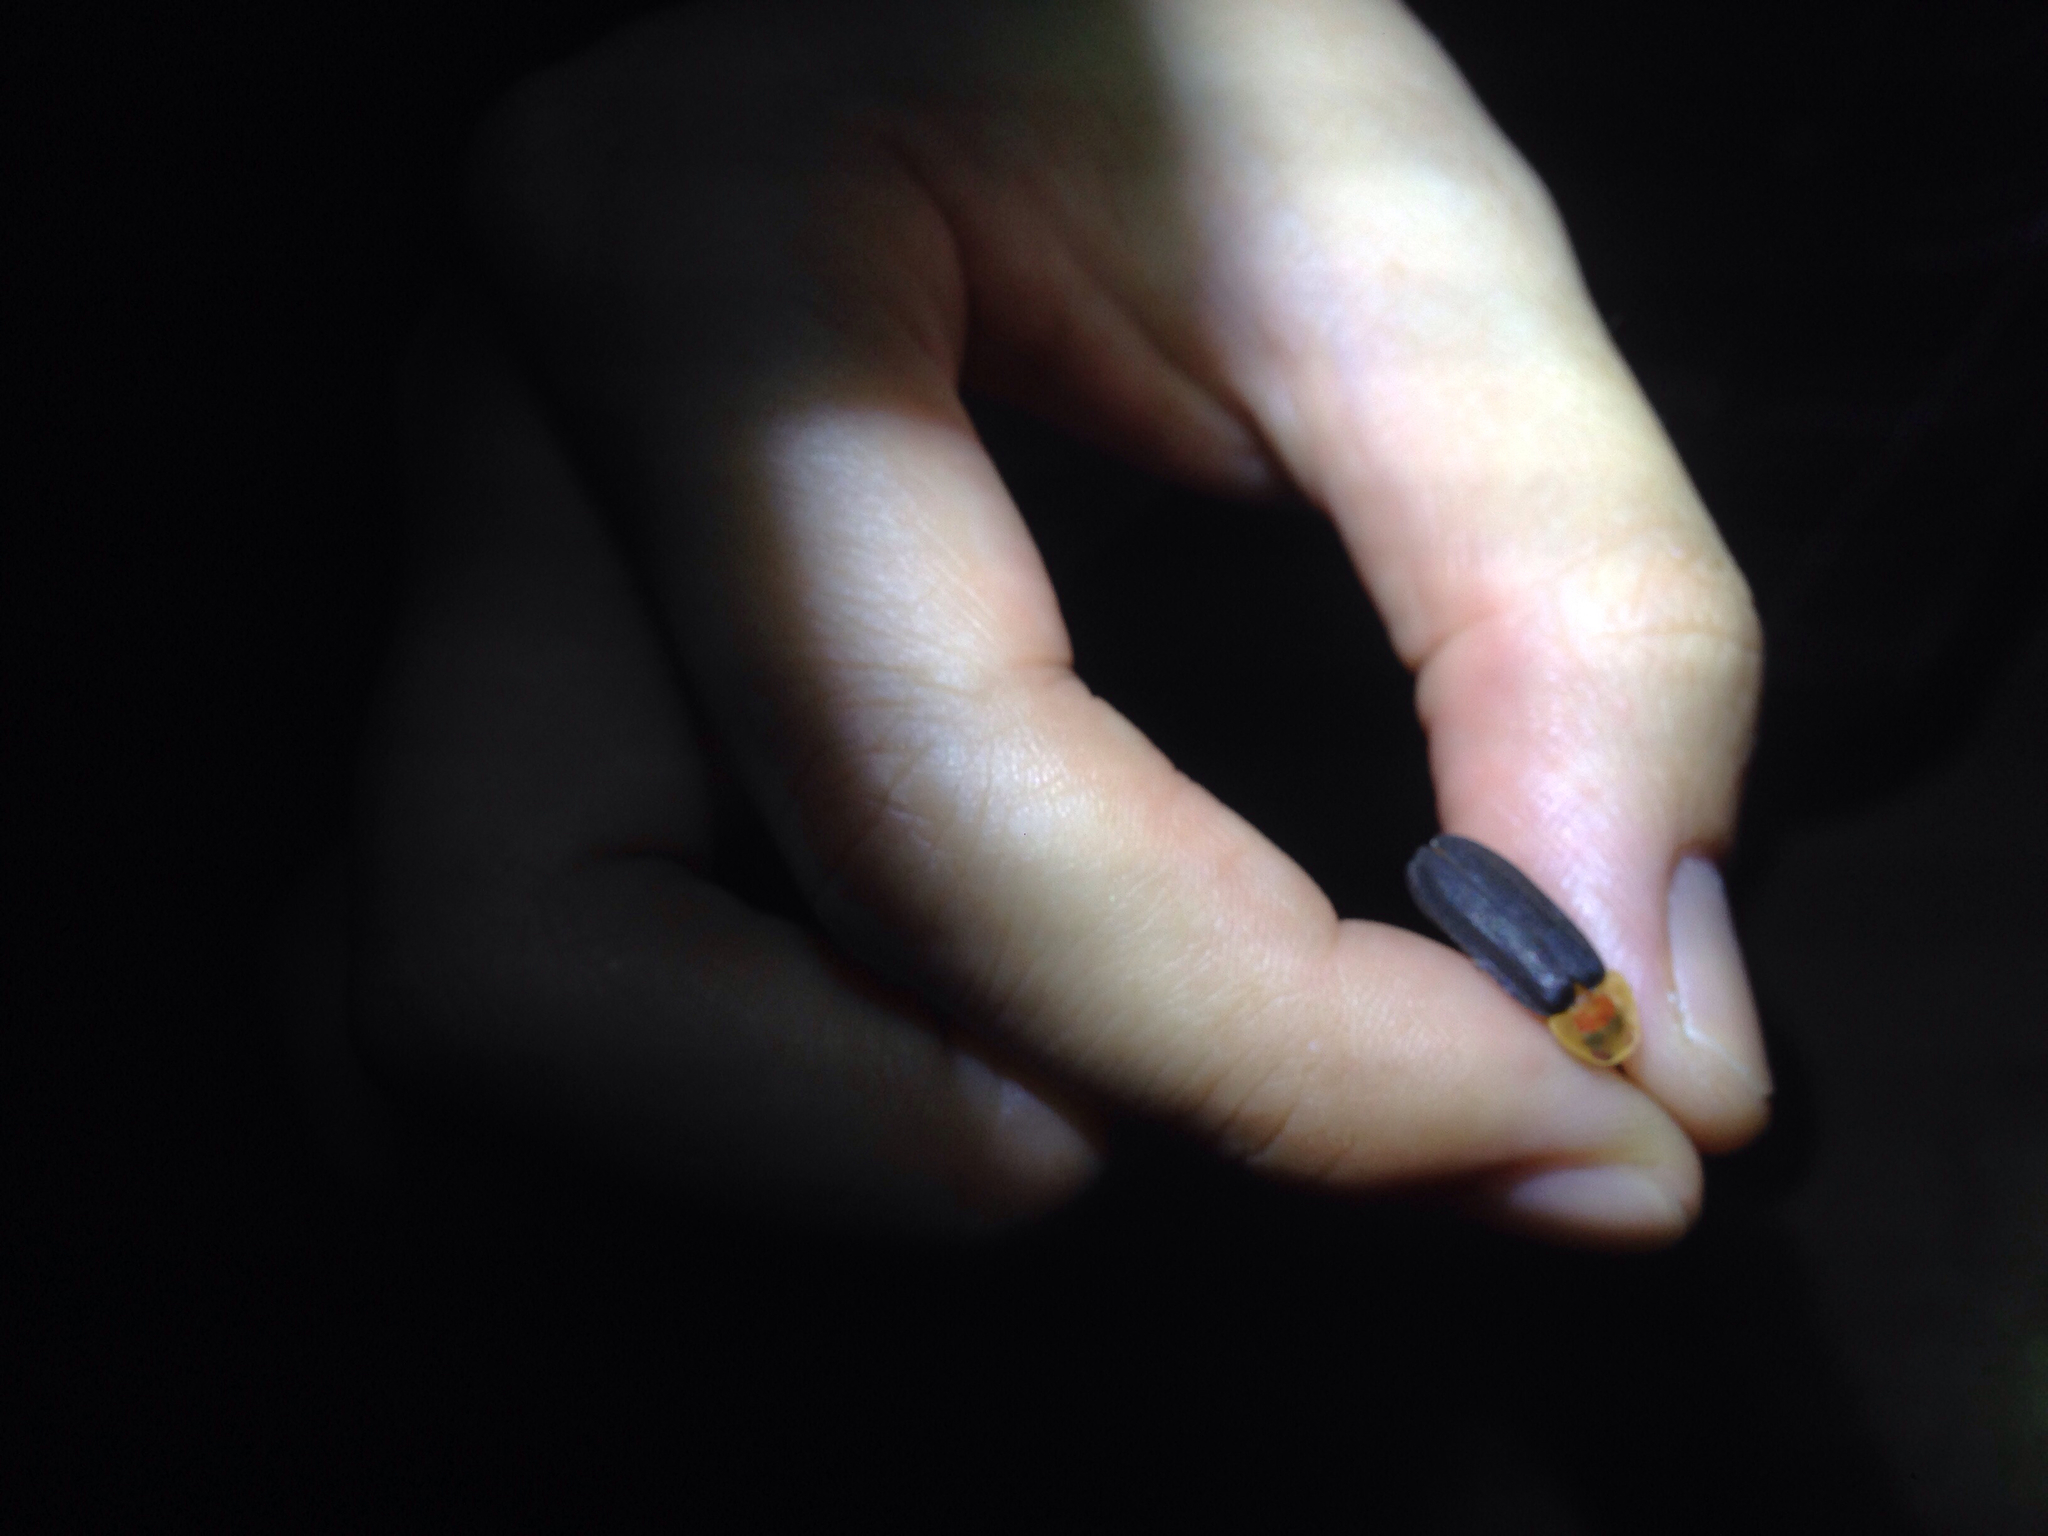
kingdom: Animalia
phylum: Arthropoda
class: Insecta
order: Coleoptera
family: Lampyridae
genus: Pyrocoelia
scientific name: Pyrocoelia rufa
